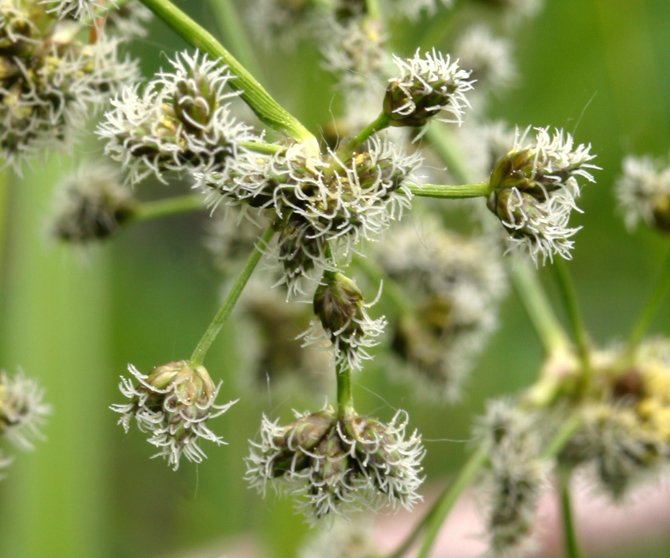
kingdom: Plantae
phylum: Tracheophyta
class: Liliopsida
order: Poales
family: Cyperaceae
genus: Scirpus
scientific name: Scirpus microcarpus
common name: Panicled bulrush
